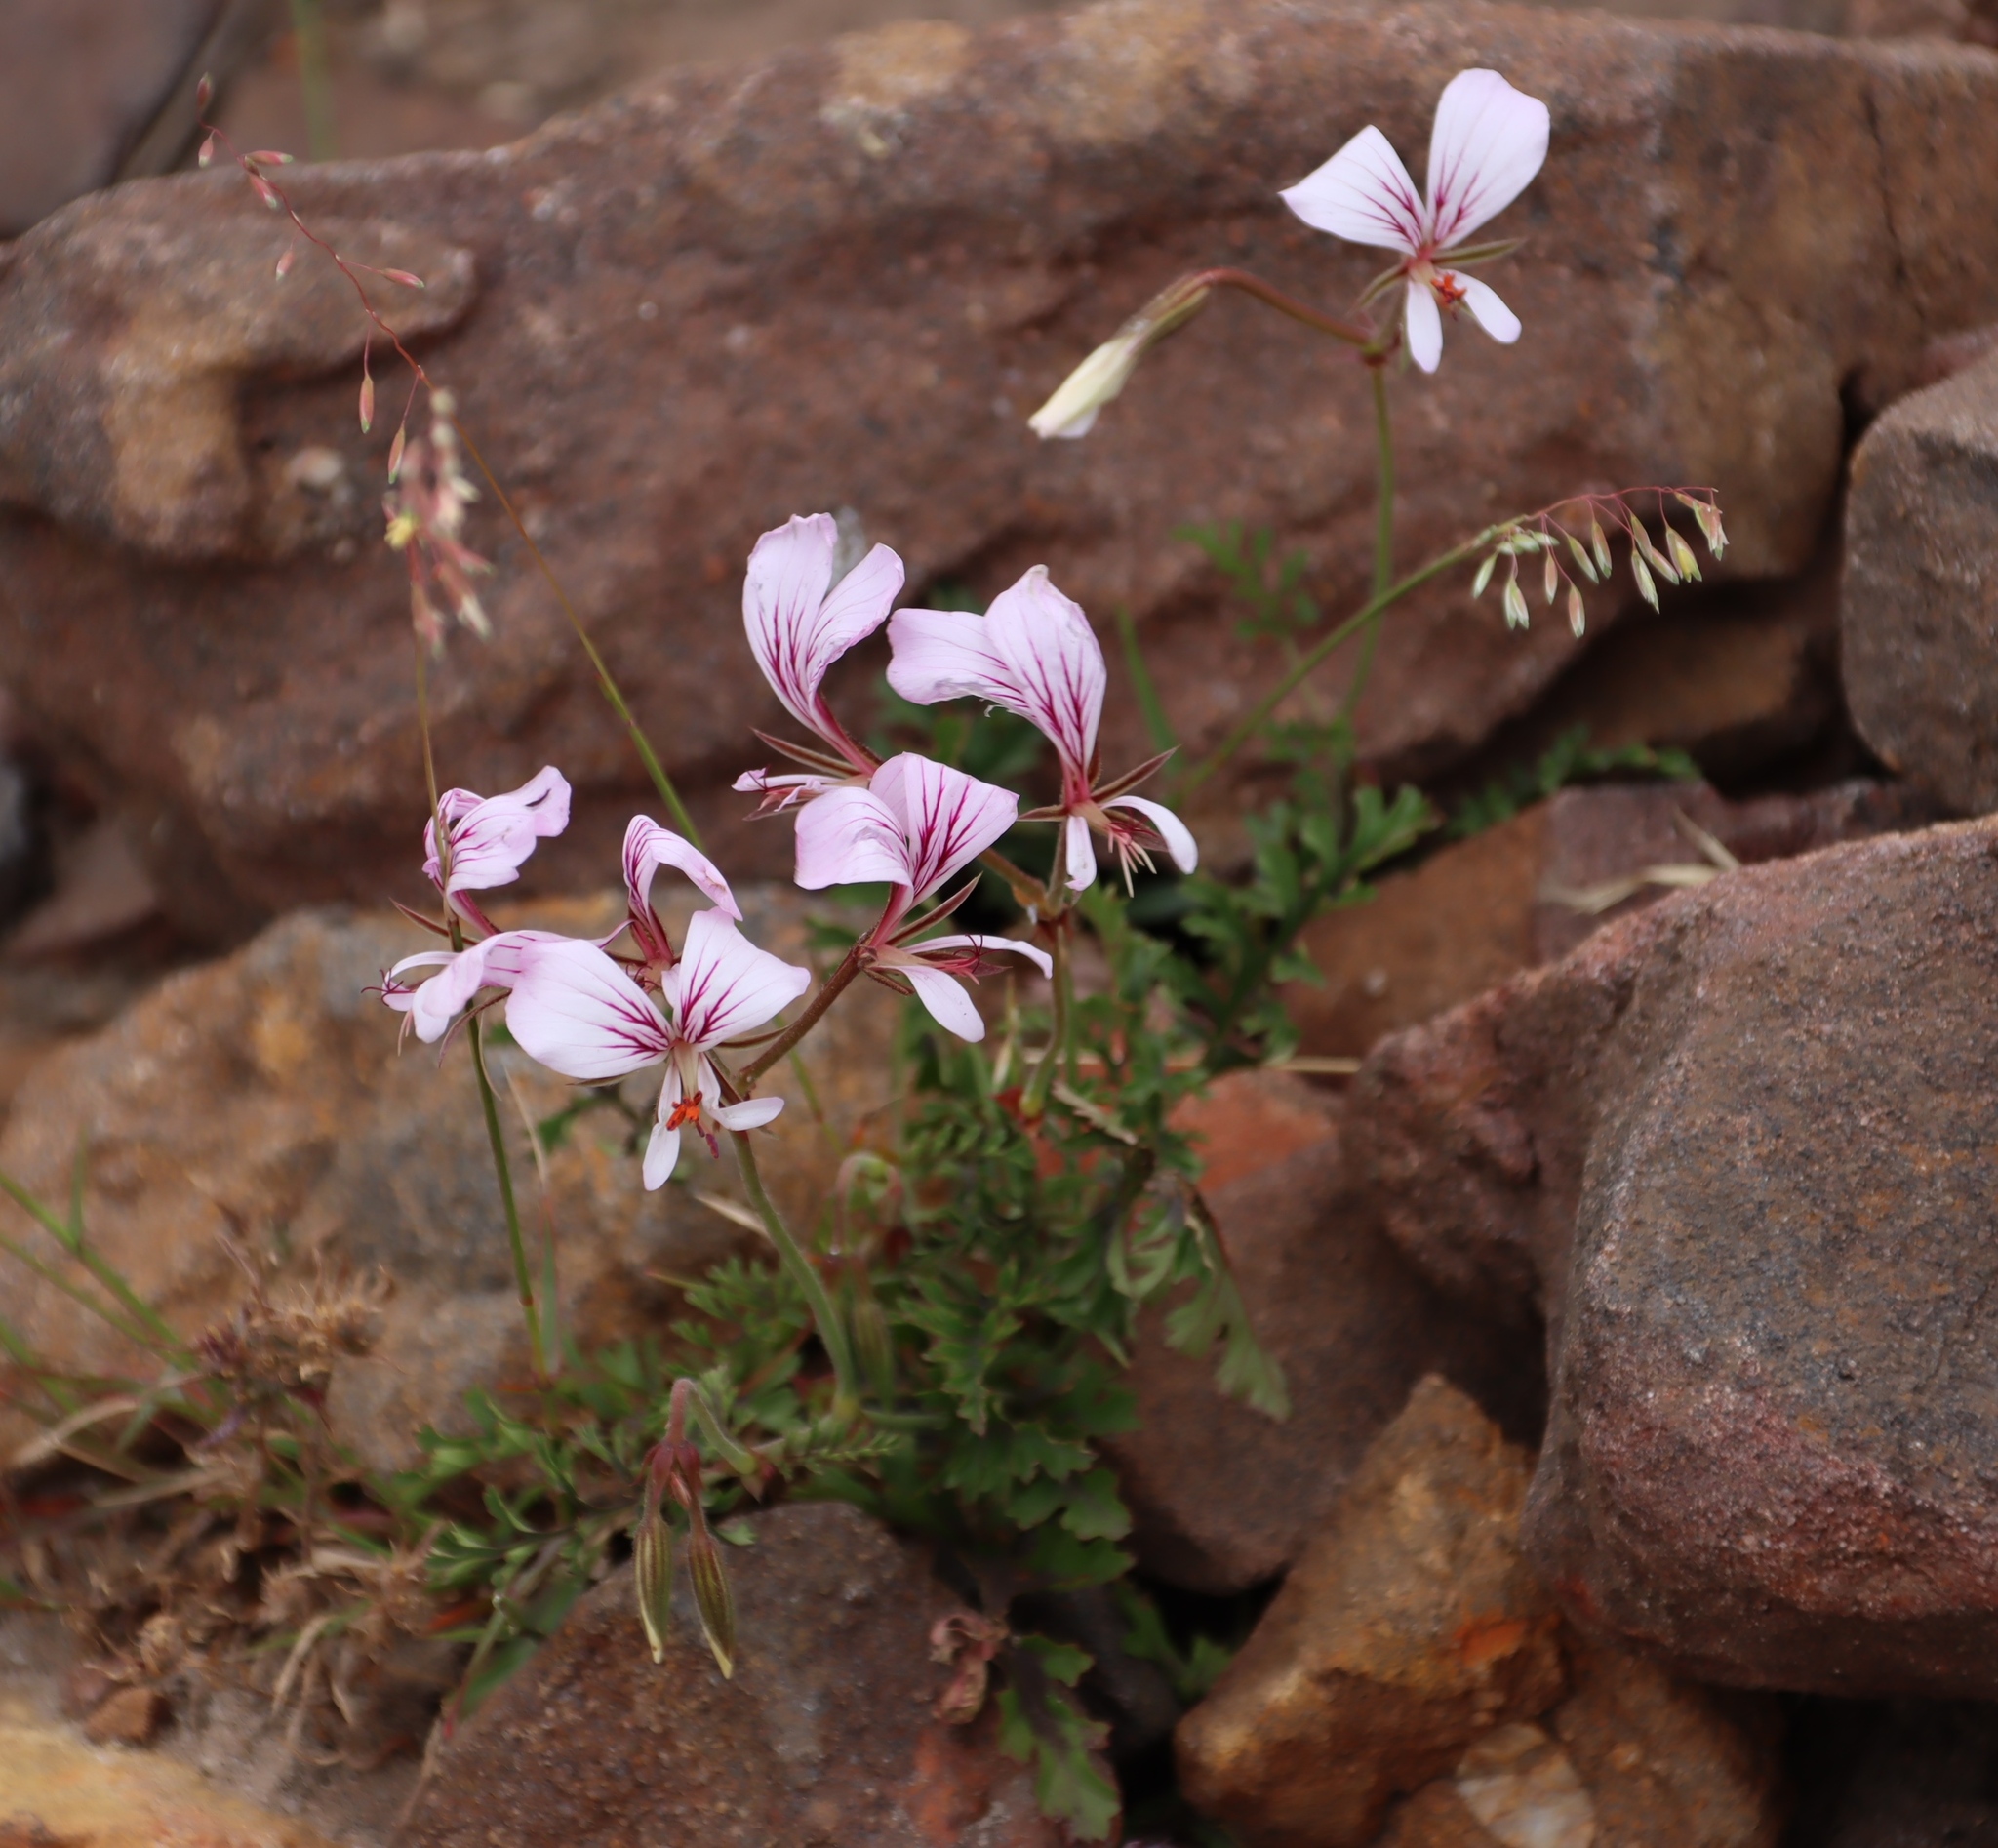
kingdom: Plantae
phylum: Tracheophyta
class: Magnoliopsida
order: Geraniales
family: Geraniaceae
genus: Pelargonium
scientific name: Pelargonium longicaule
